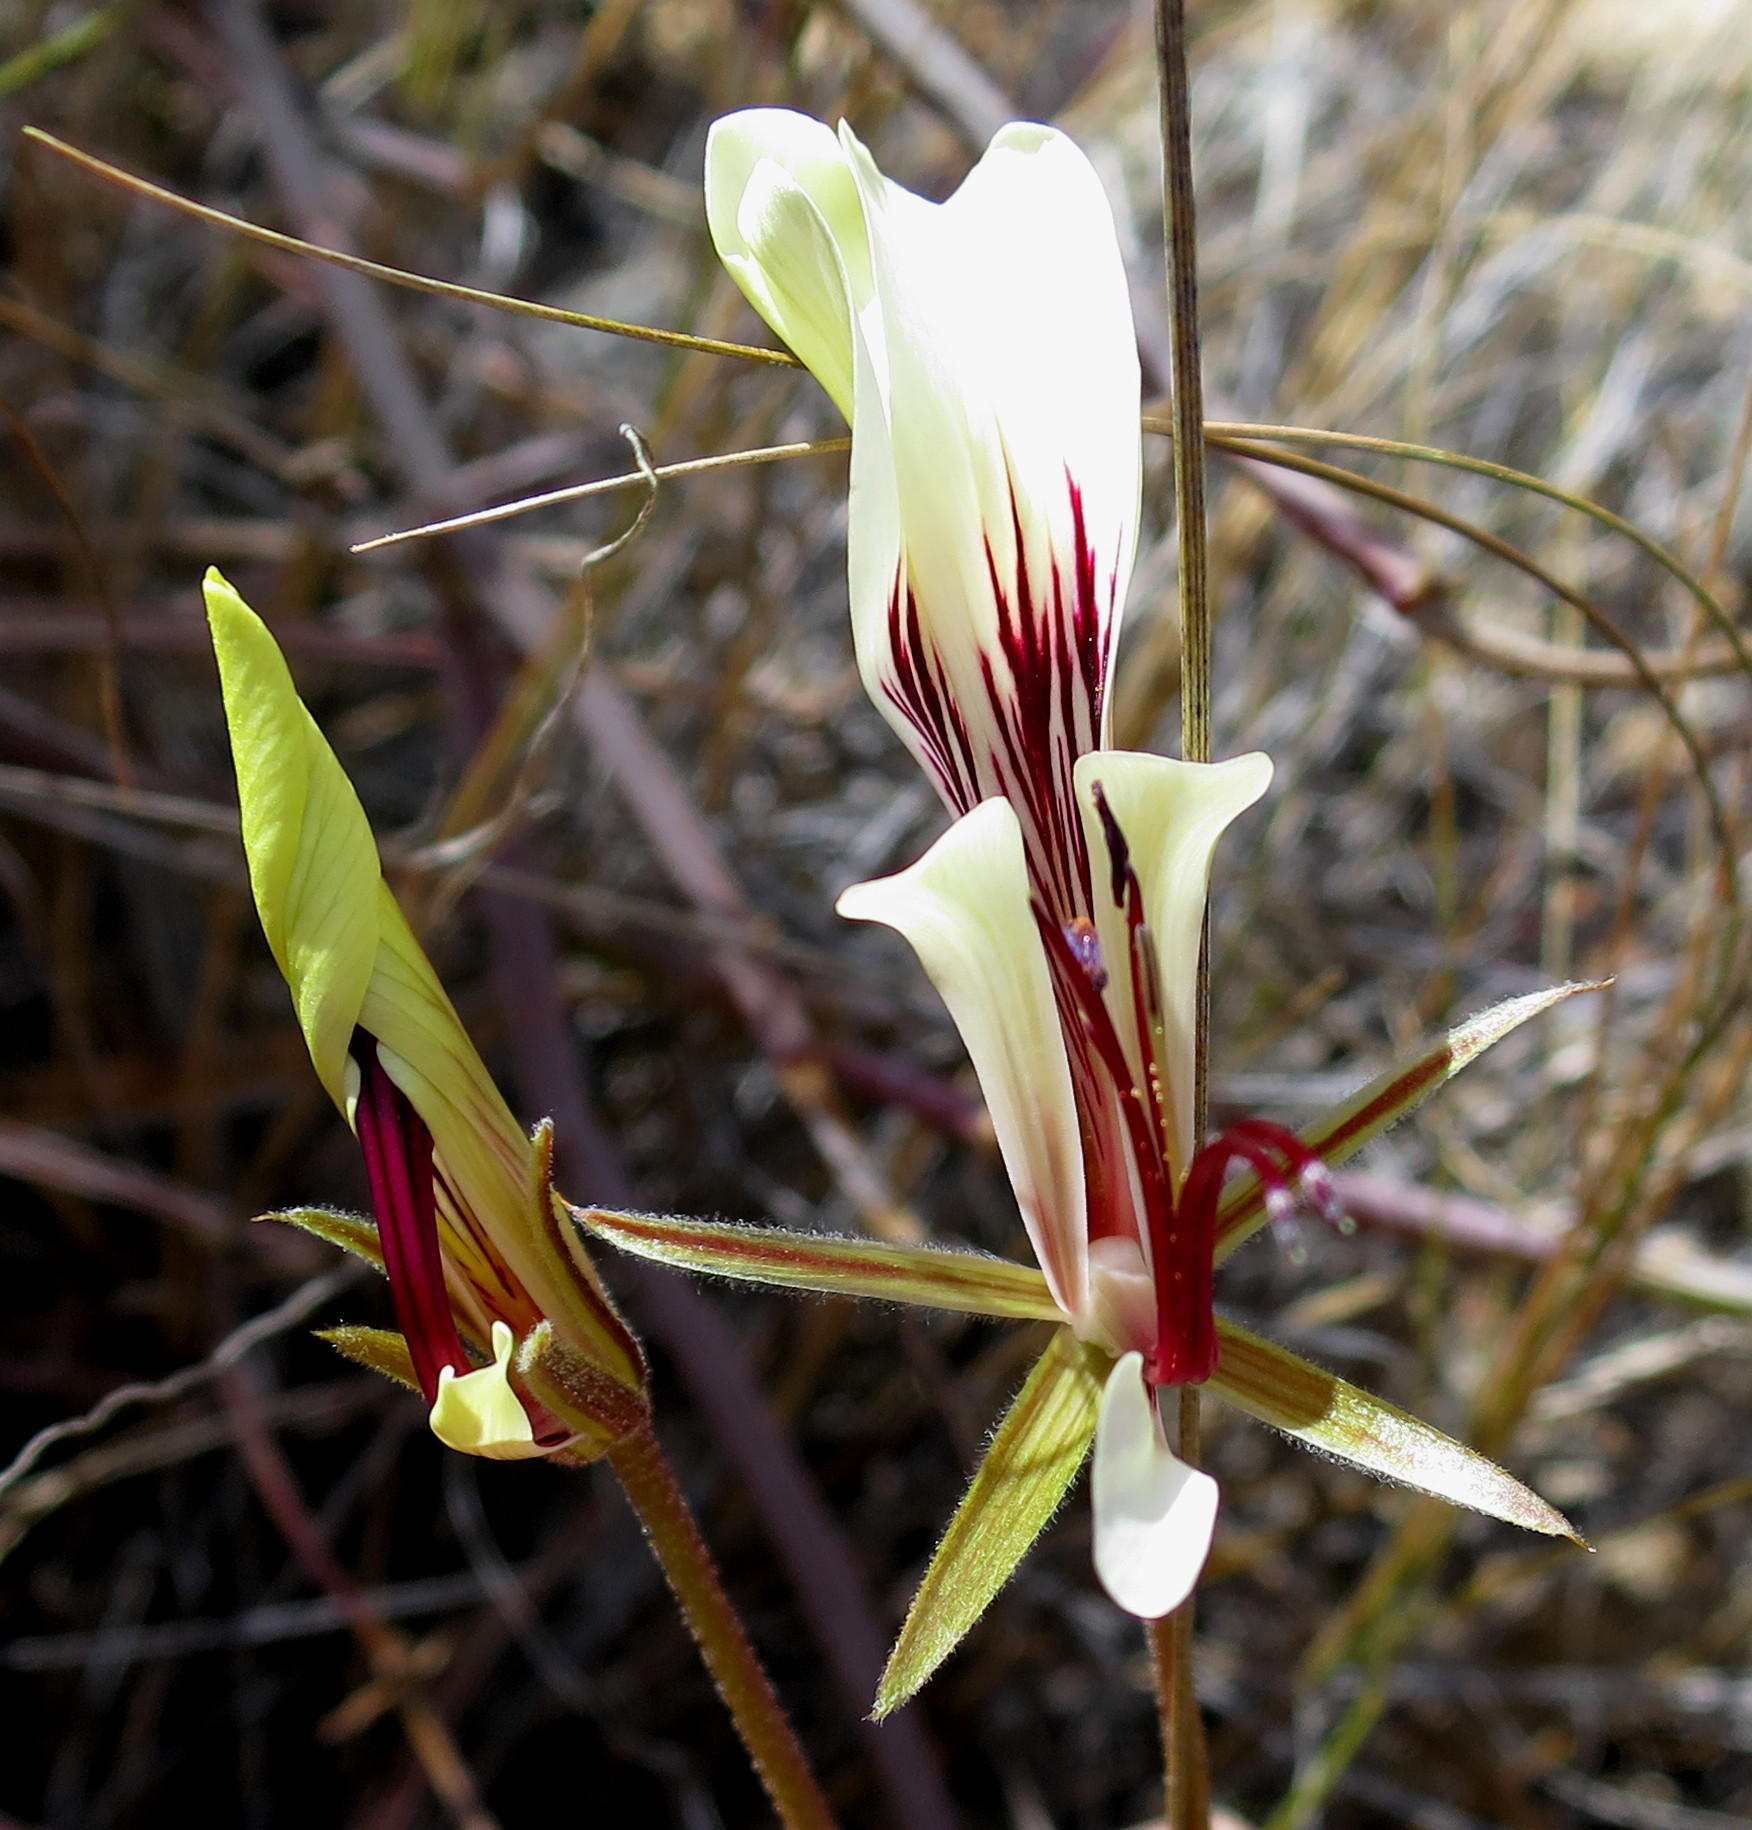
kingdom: Plantae
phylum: Tracheophyta
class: Magnoliopsida
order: Geraniales
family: Geraniaceae
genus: Pelargonium
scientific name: Pelargonium tetragonum
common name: Square-stack crane's-bill
